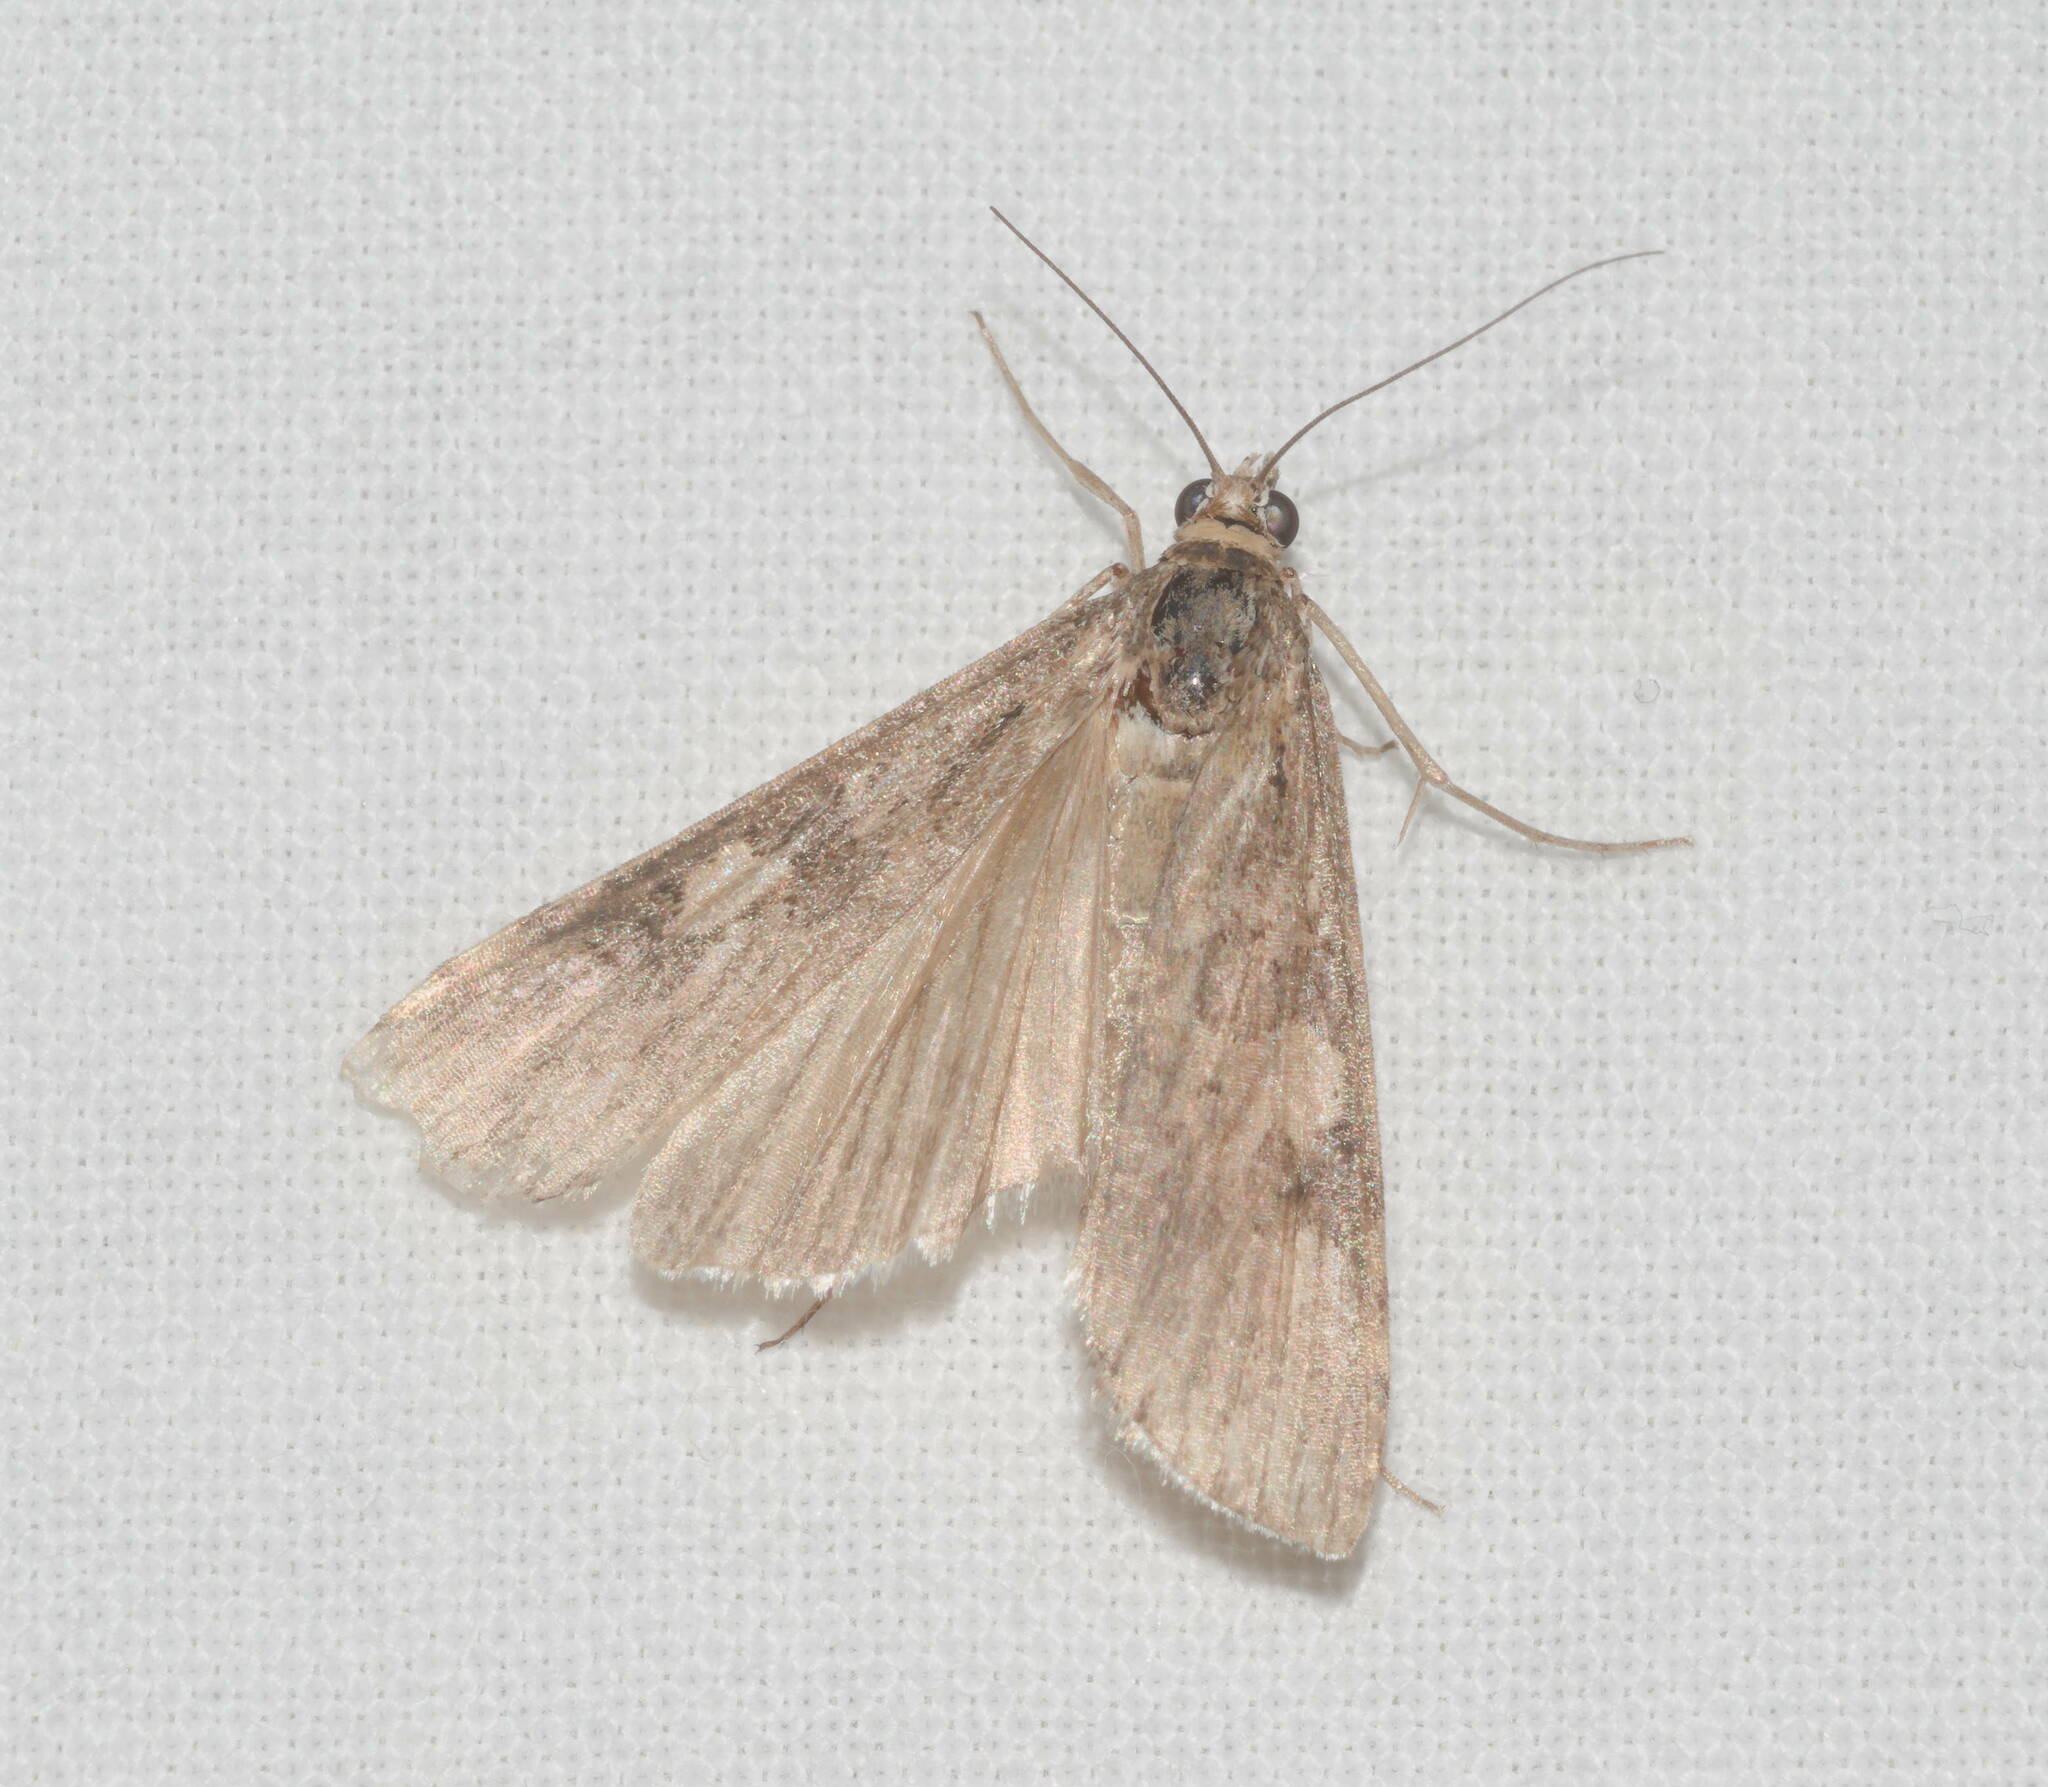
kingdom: Animalia
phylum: Arthropoda
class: Insecta
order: Lepidoptera
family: Crambidae
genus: Nomophila
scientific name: Nomophila noctuella
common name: Rush veneer
